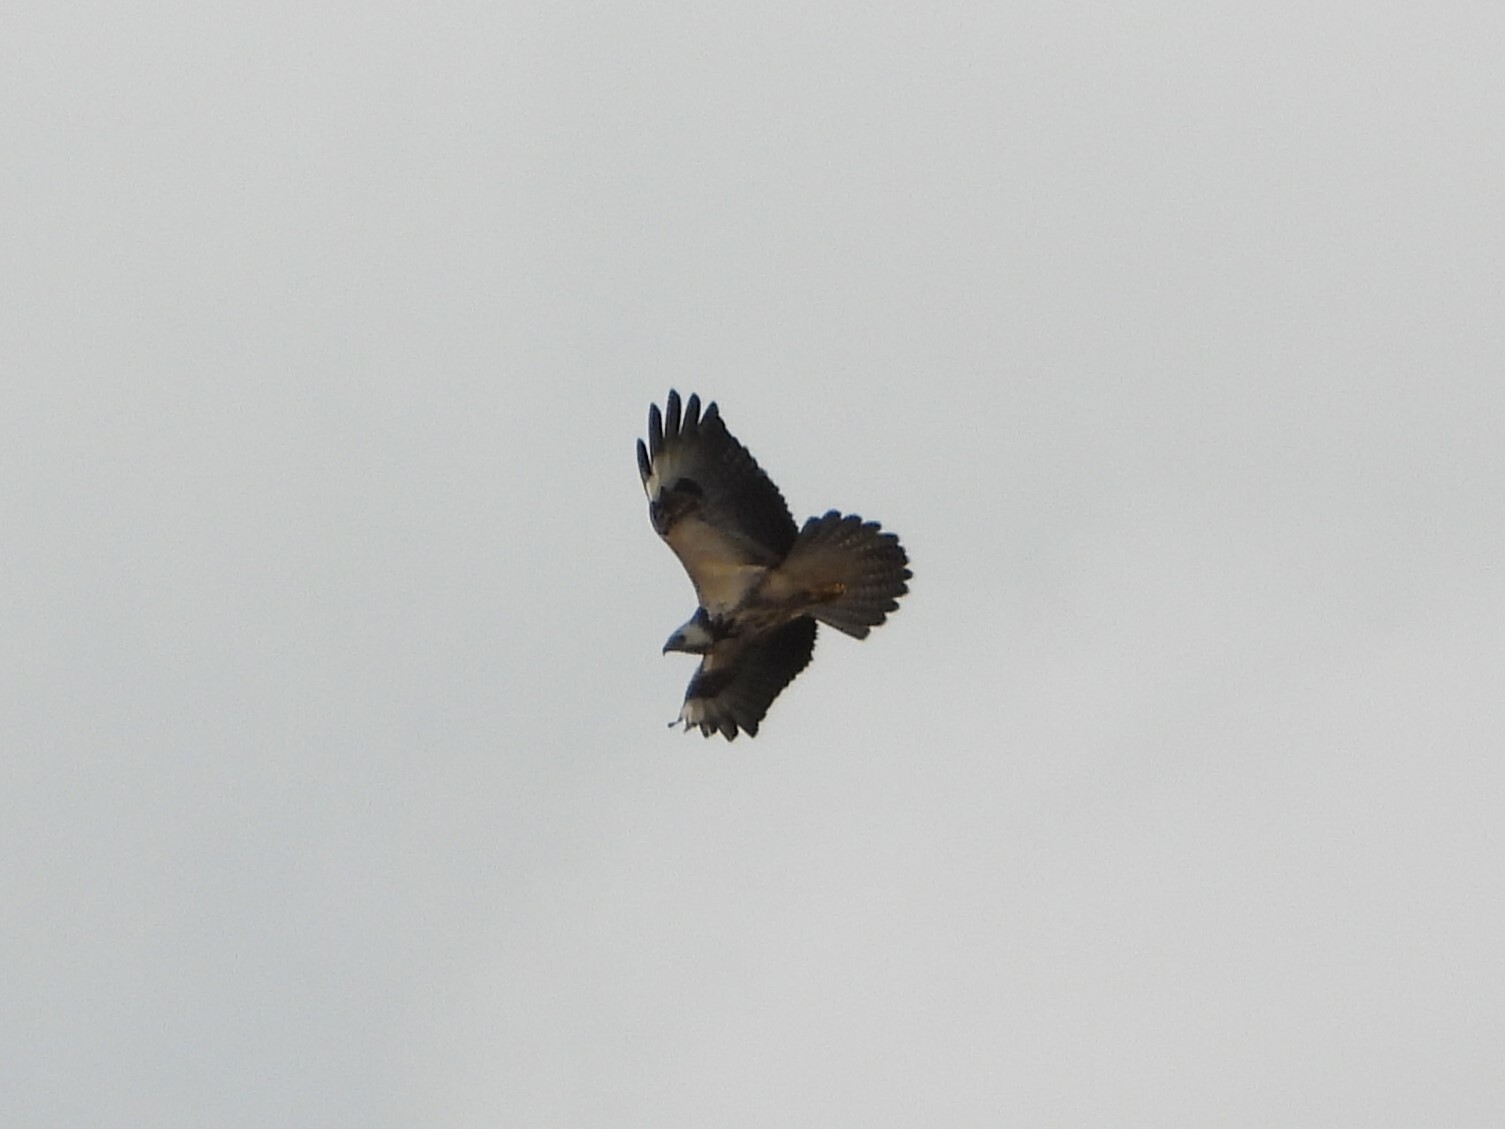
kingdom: Animalia
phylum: Chordata
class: Aves
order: Accipitriformes
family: Accipitridae
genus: Buteo
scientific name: Buteo buteo
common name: Common buzzard
